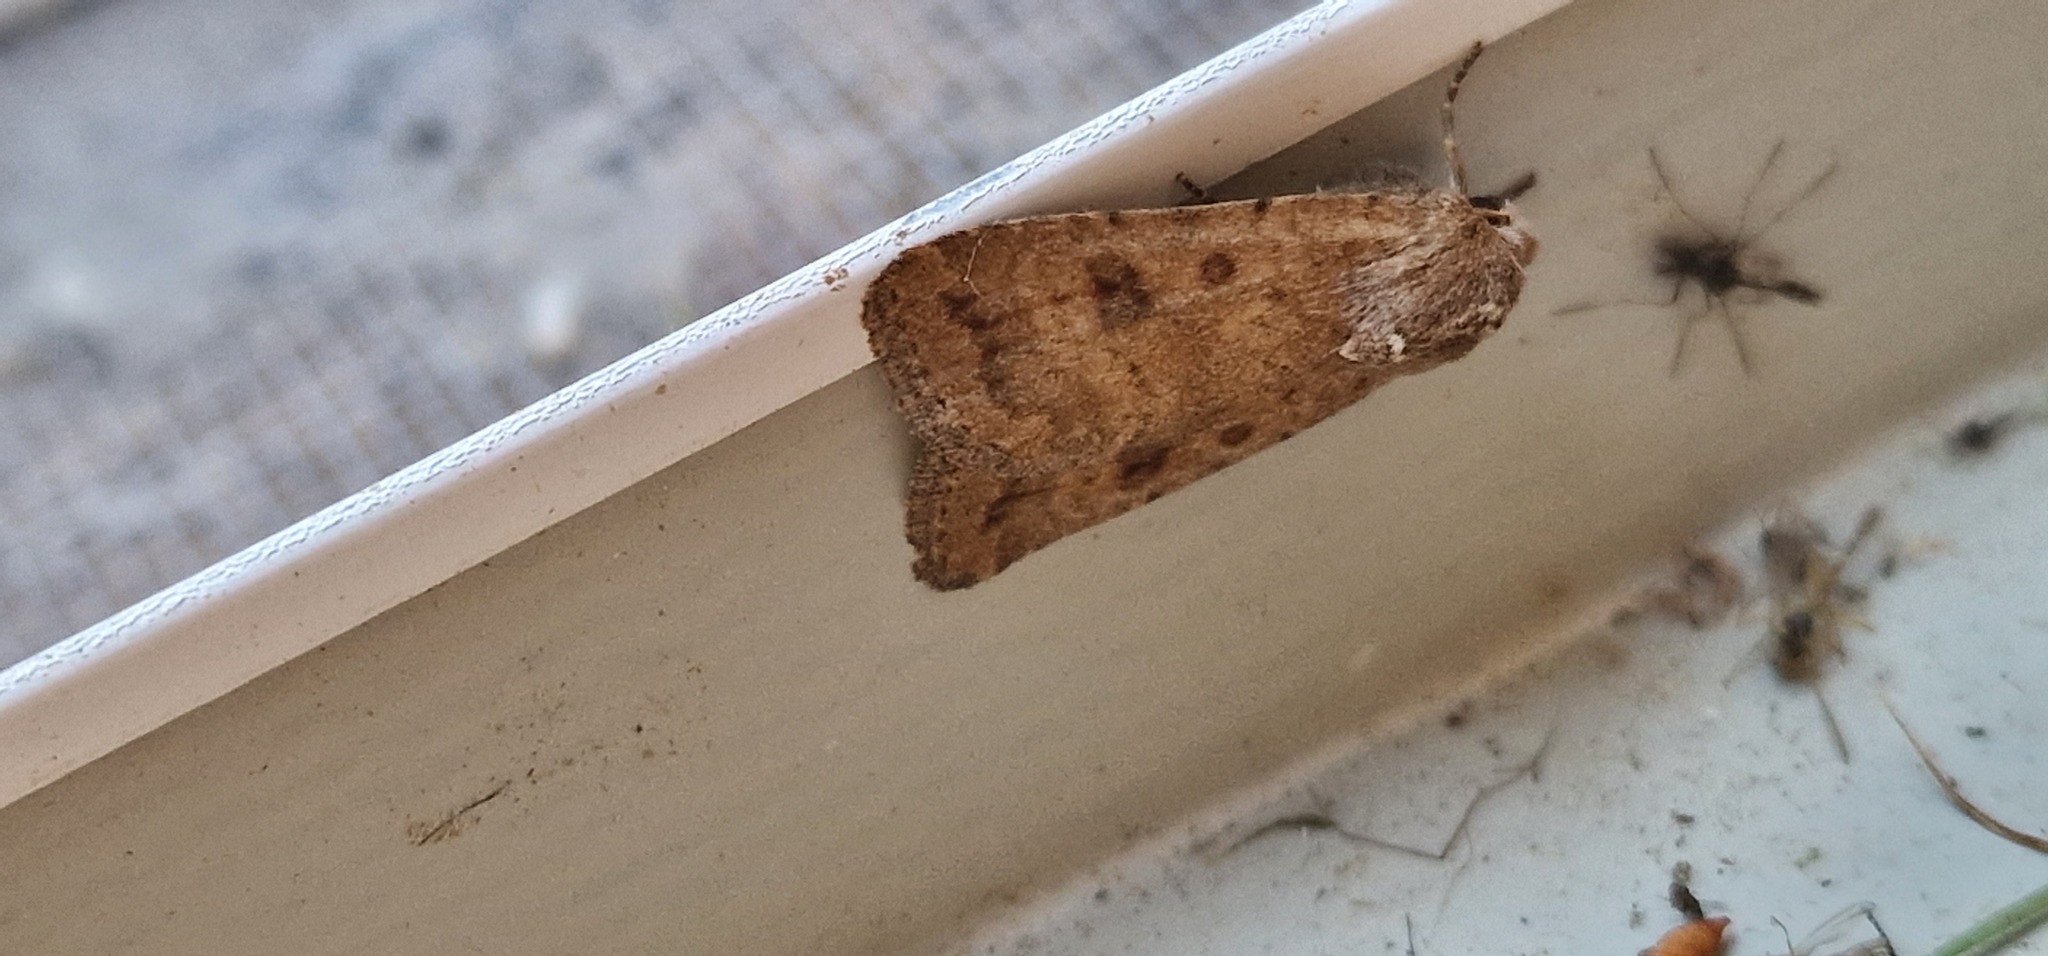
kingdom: Animalia
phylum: Arthropoda
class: Insecta
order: Lepidoptera
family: Noctuidae
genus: Caradrina
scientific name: Caradrina morpheus
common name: Mottled rustic
